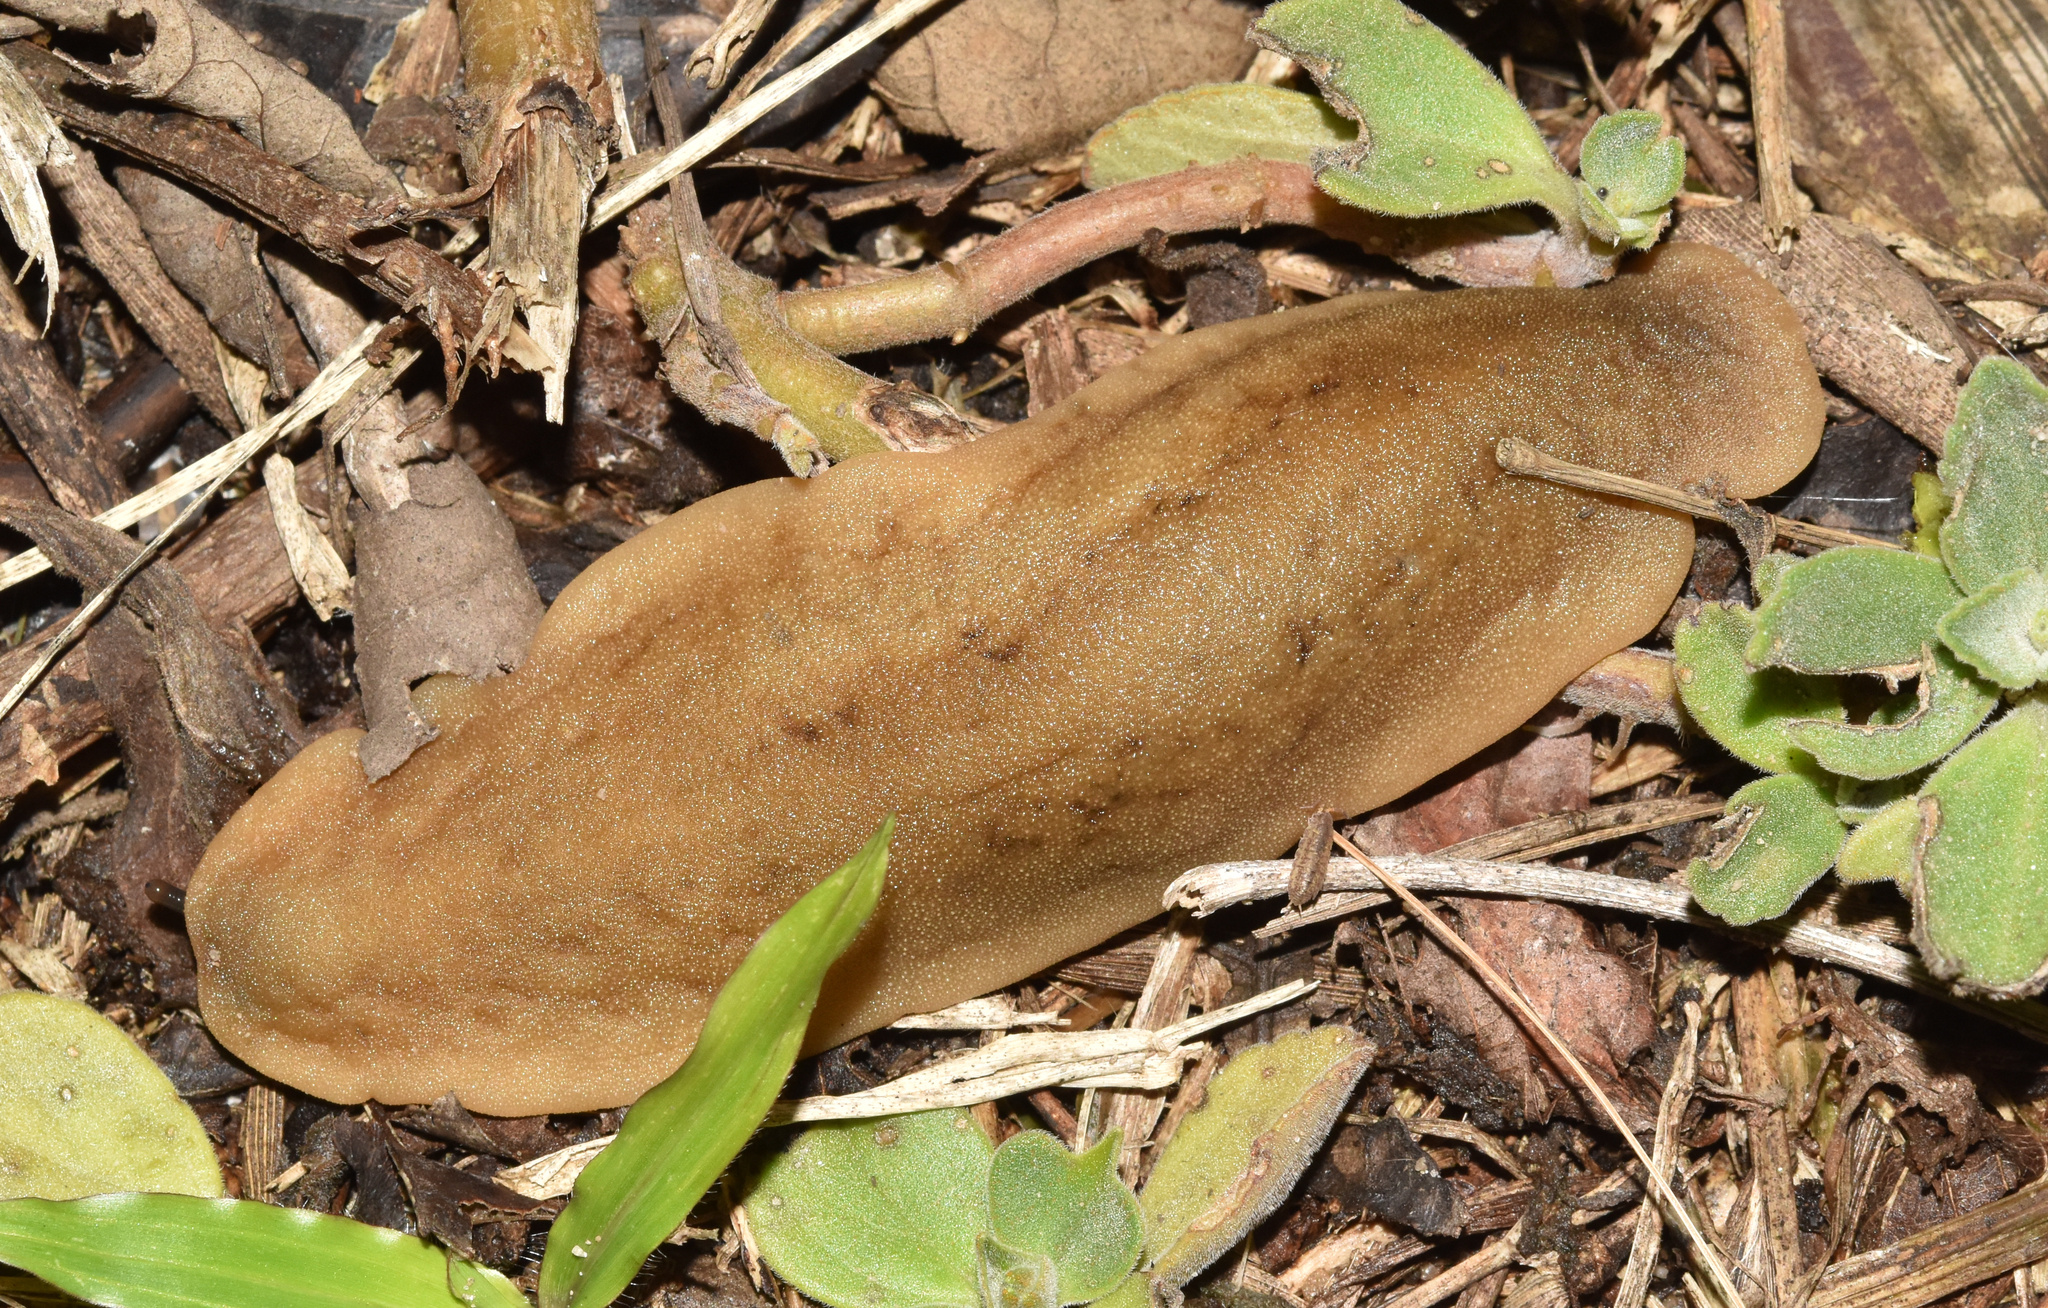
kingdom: Animalia
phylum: Mollusca
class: Gastropoda
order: Systellommatophora
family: Veronicellidae
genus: Laevicaulis
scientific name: Laevicaulis natalensis
